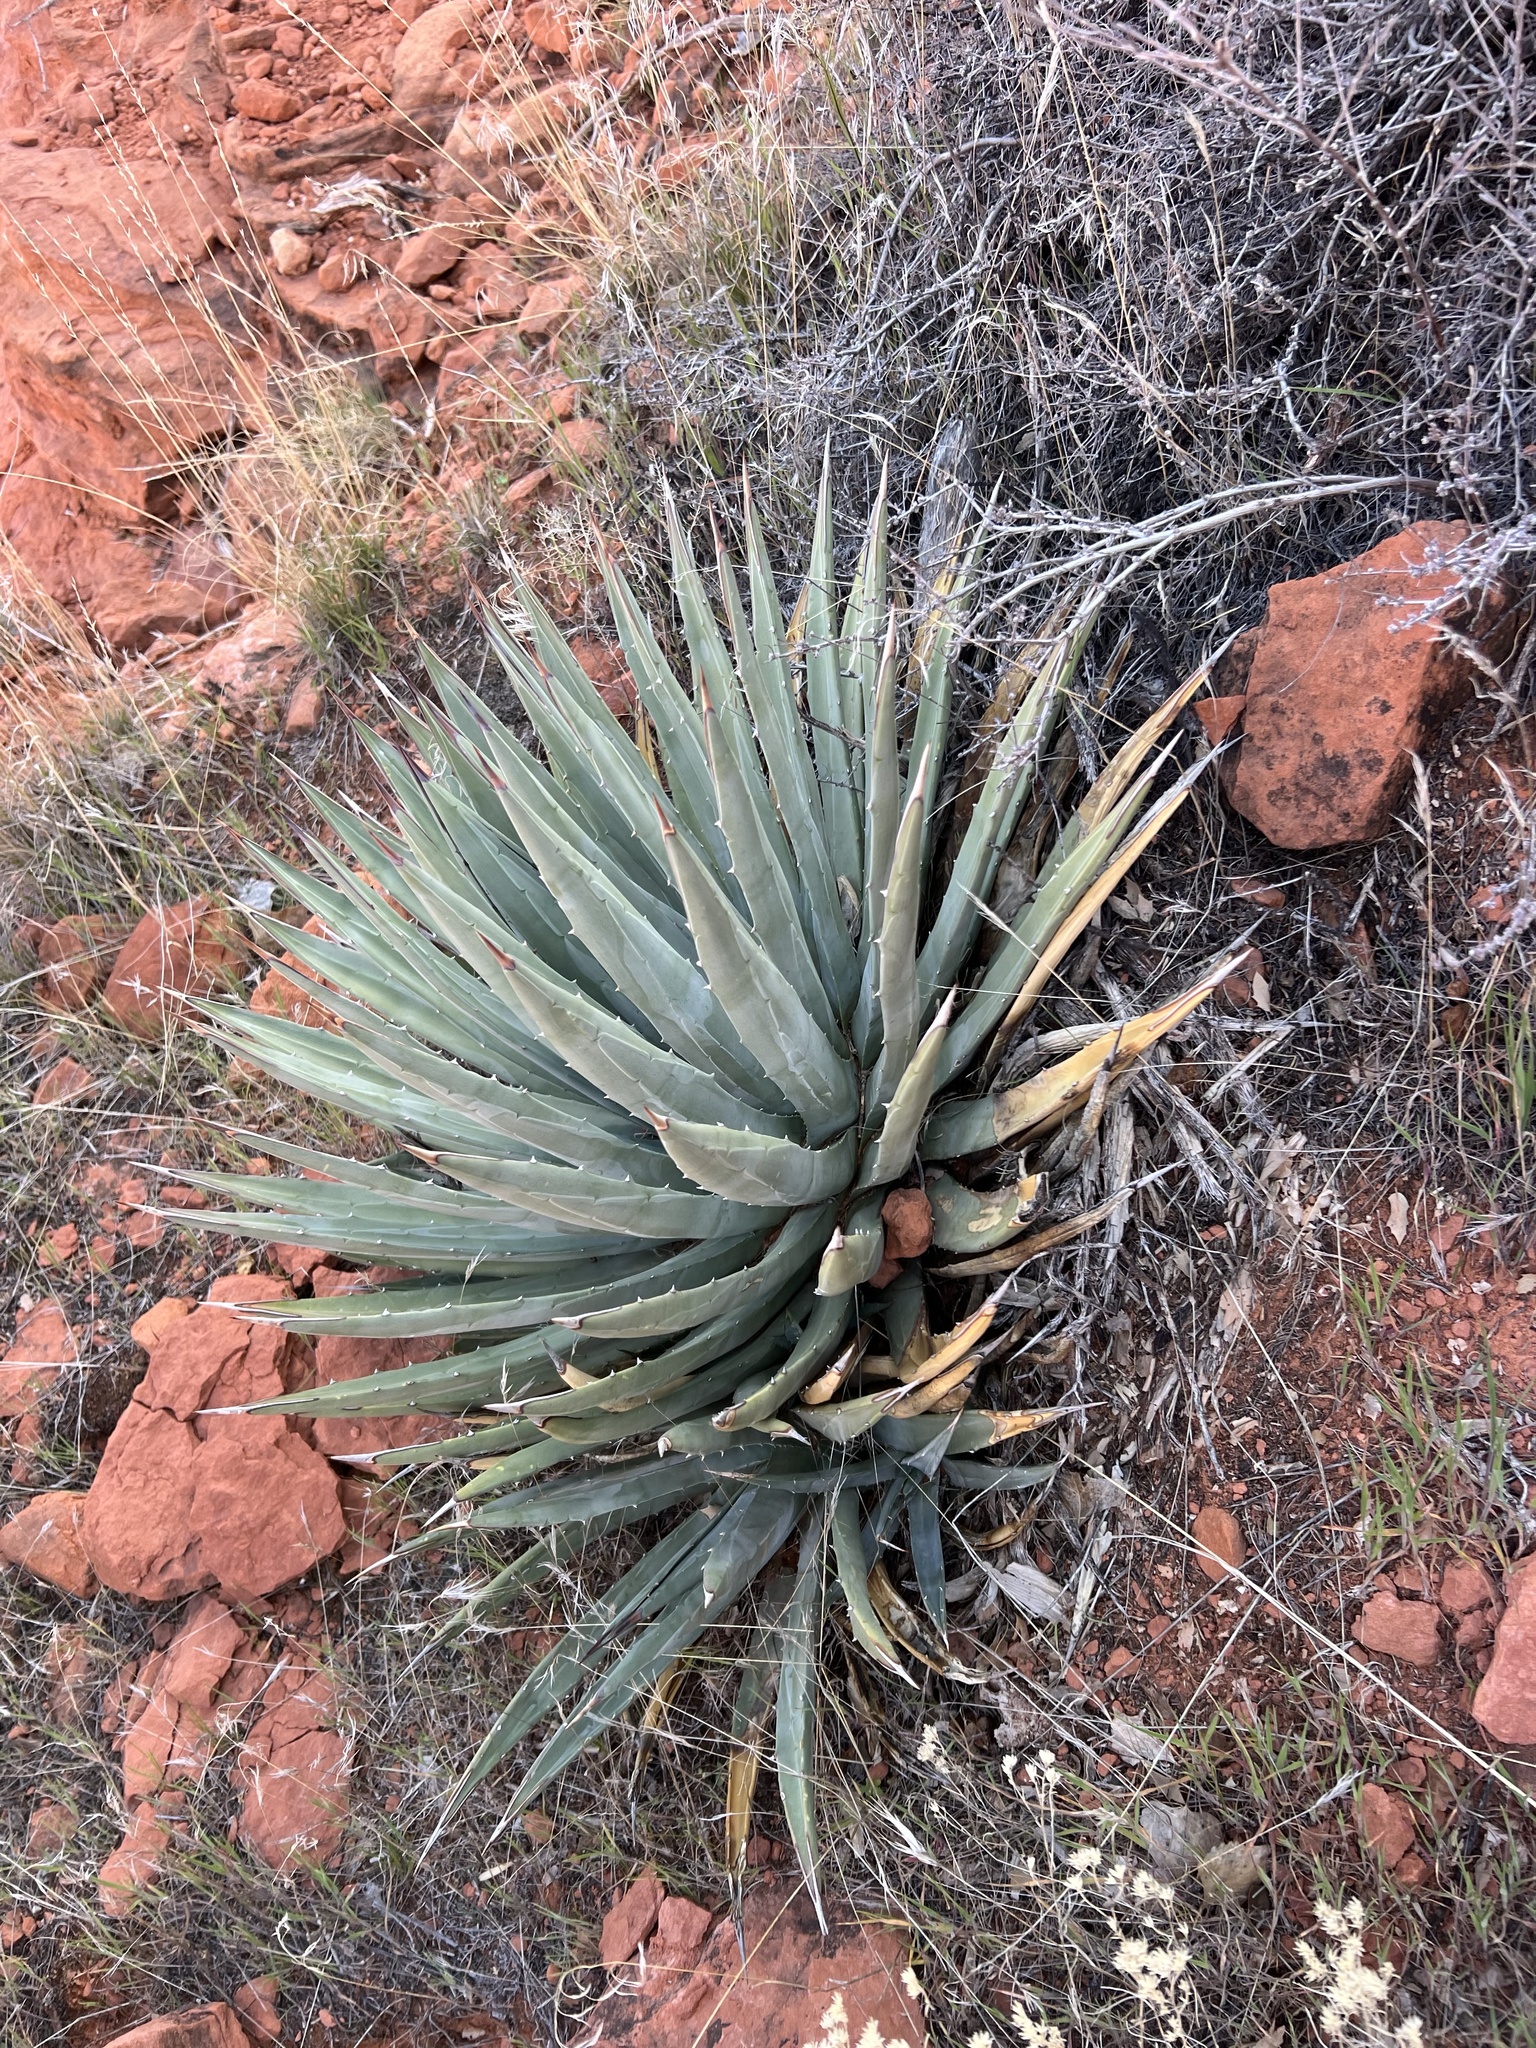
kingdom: Plantae
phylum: Tracheophyta
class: Liliopsida
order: Asparagales
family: Asparagaceae
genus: Agave
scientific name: Agave utahensis
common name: Utah agave
